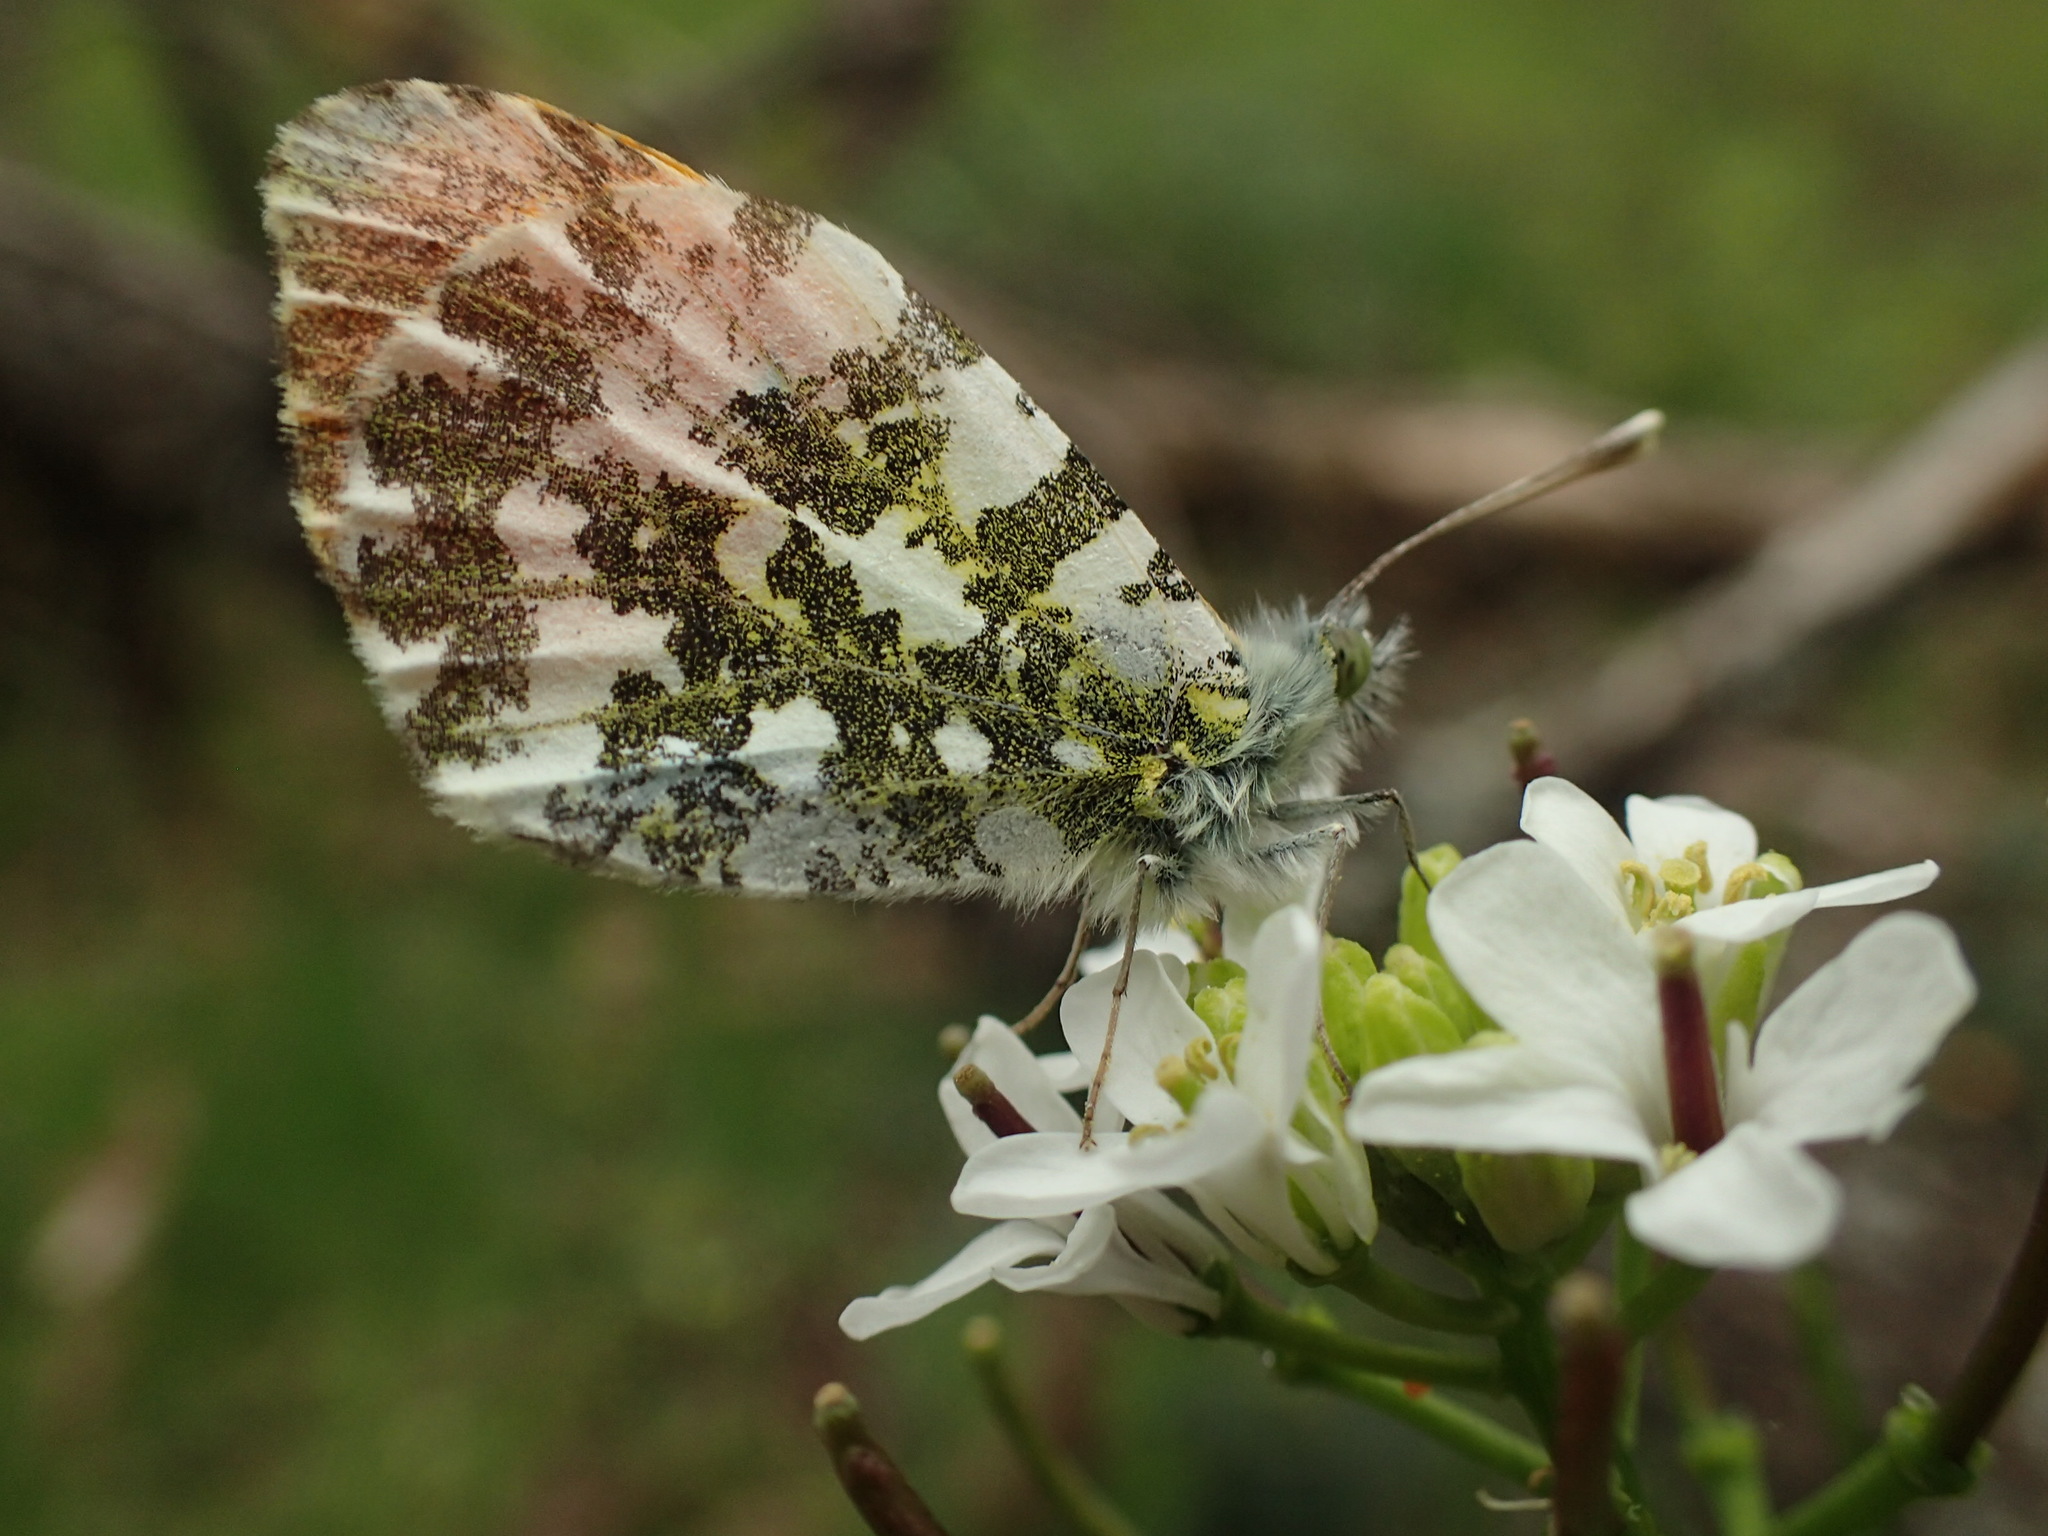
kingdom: Animalia
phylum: Arthropoda
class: Insecta
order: Lepidoptera
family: Pieridae
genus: Anthocharis
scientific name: Anthocharis cardamines
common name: Orange-tip
